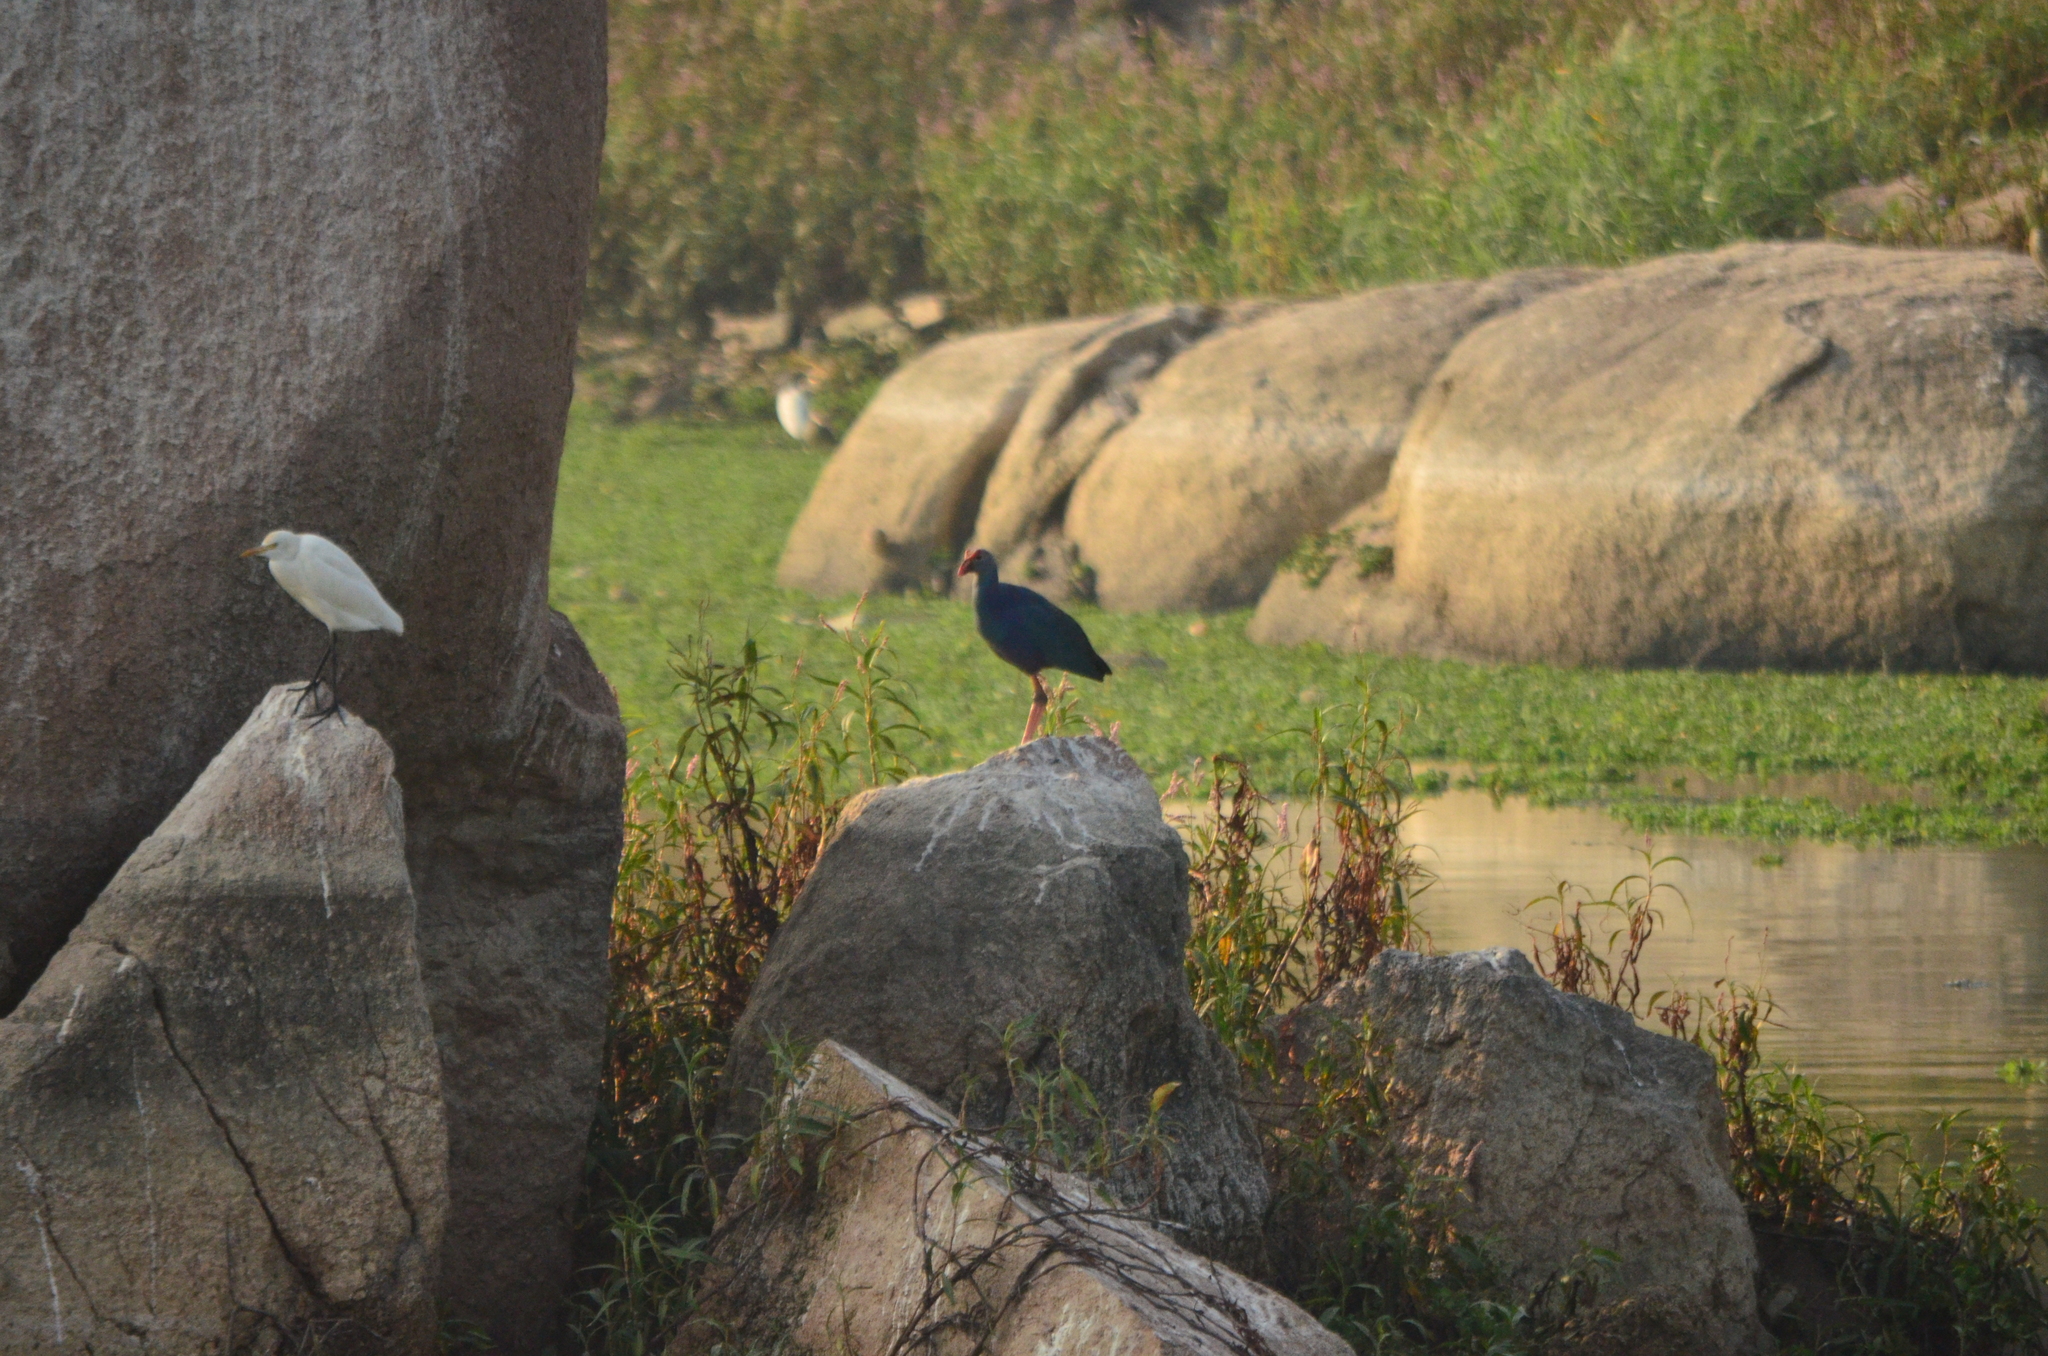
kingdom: Animalia
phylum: Chordata
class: Aves
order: Gruiformes
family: Rallidae
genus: Porphyrio
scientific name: Porphyrio porphyrio
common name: Purple swamphen
